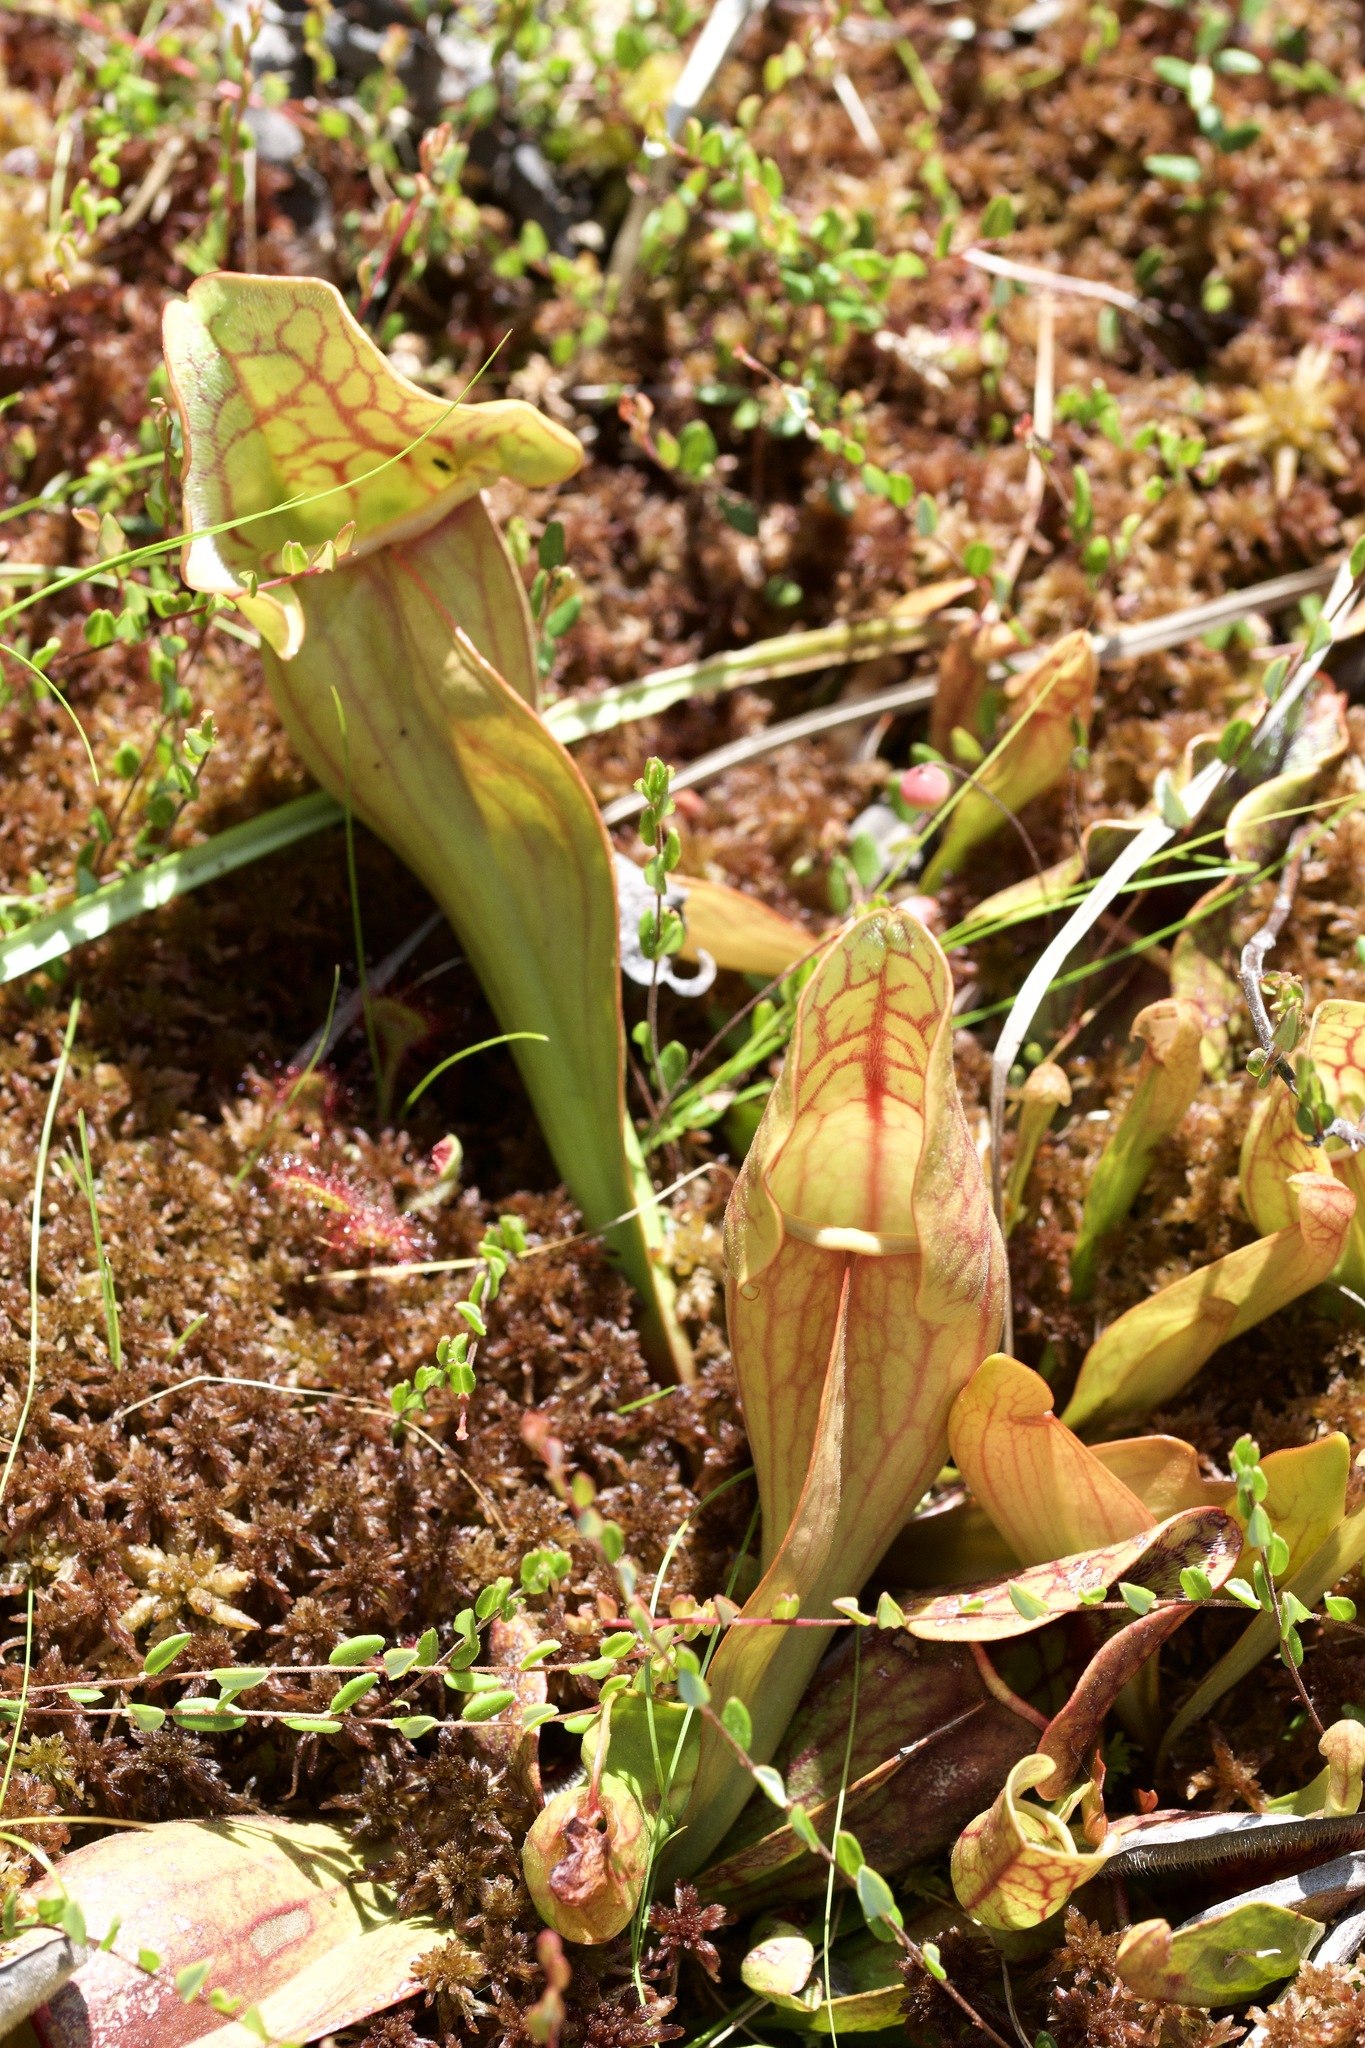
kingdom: Plantae
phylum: Tracheophyta
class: Magnoliopsida
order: Ericales
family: Sarraceniaceae
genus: Sarracenia
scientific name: Sarracenia purpurea
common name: Pitcherplant
